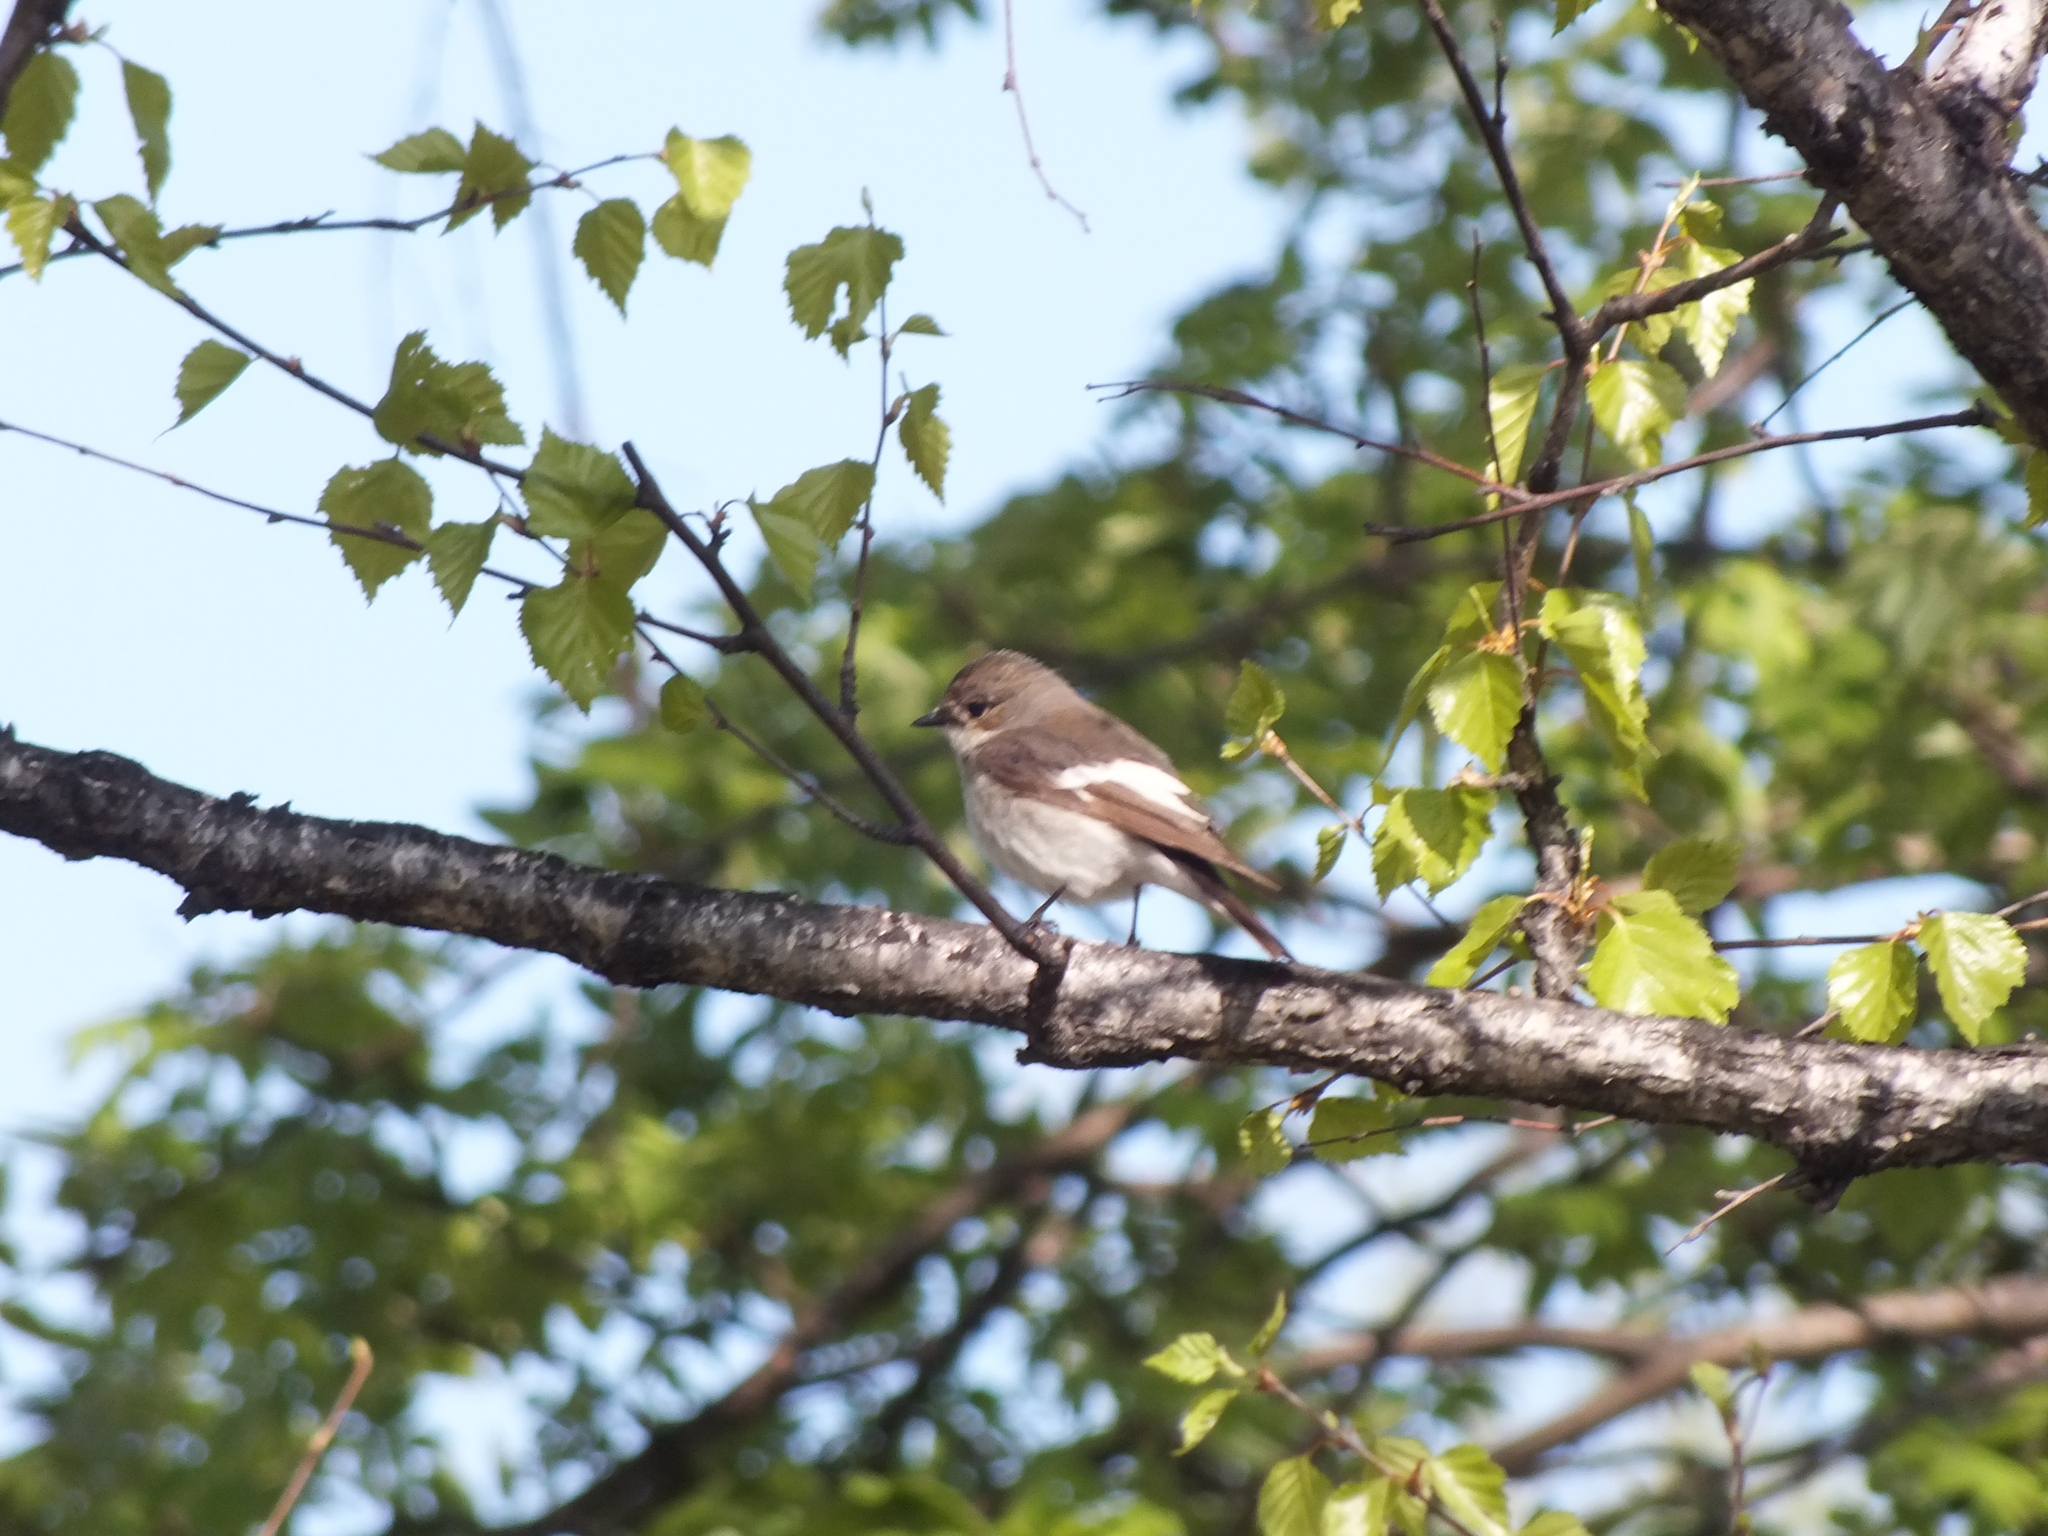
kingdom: Animalia
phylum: Chordata
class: Aves
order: Passeriformes
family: Muscicapidae
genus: Ficedula
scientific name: Ficedula hypoleuca
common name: European pied flycatcher
